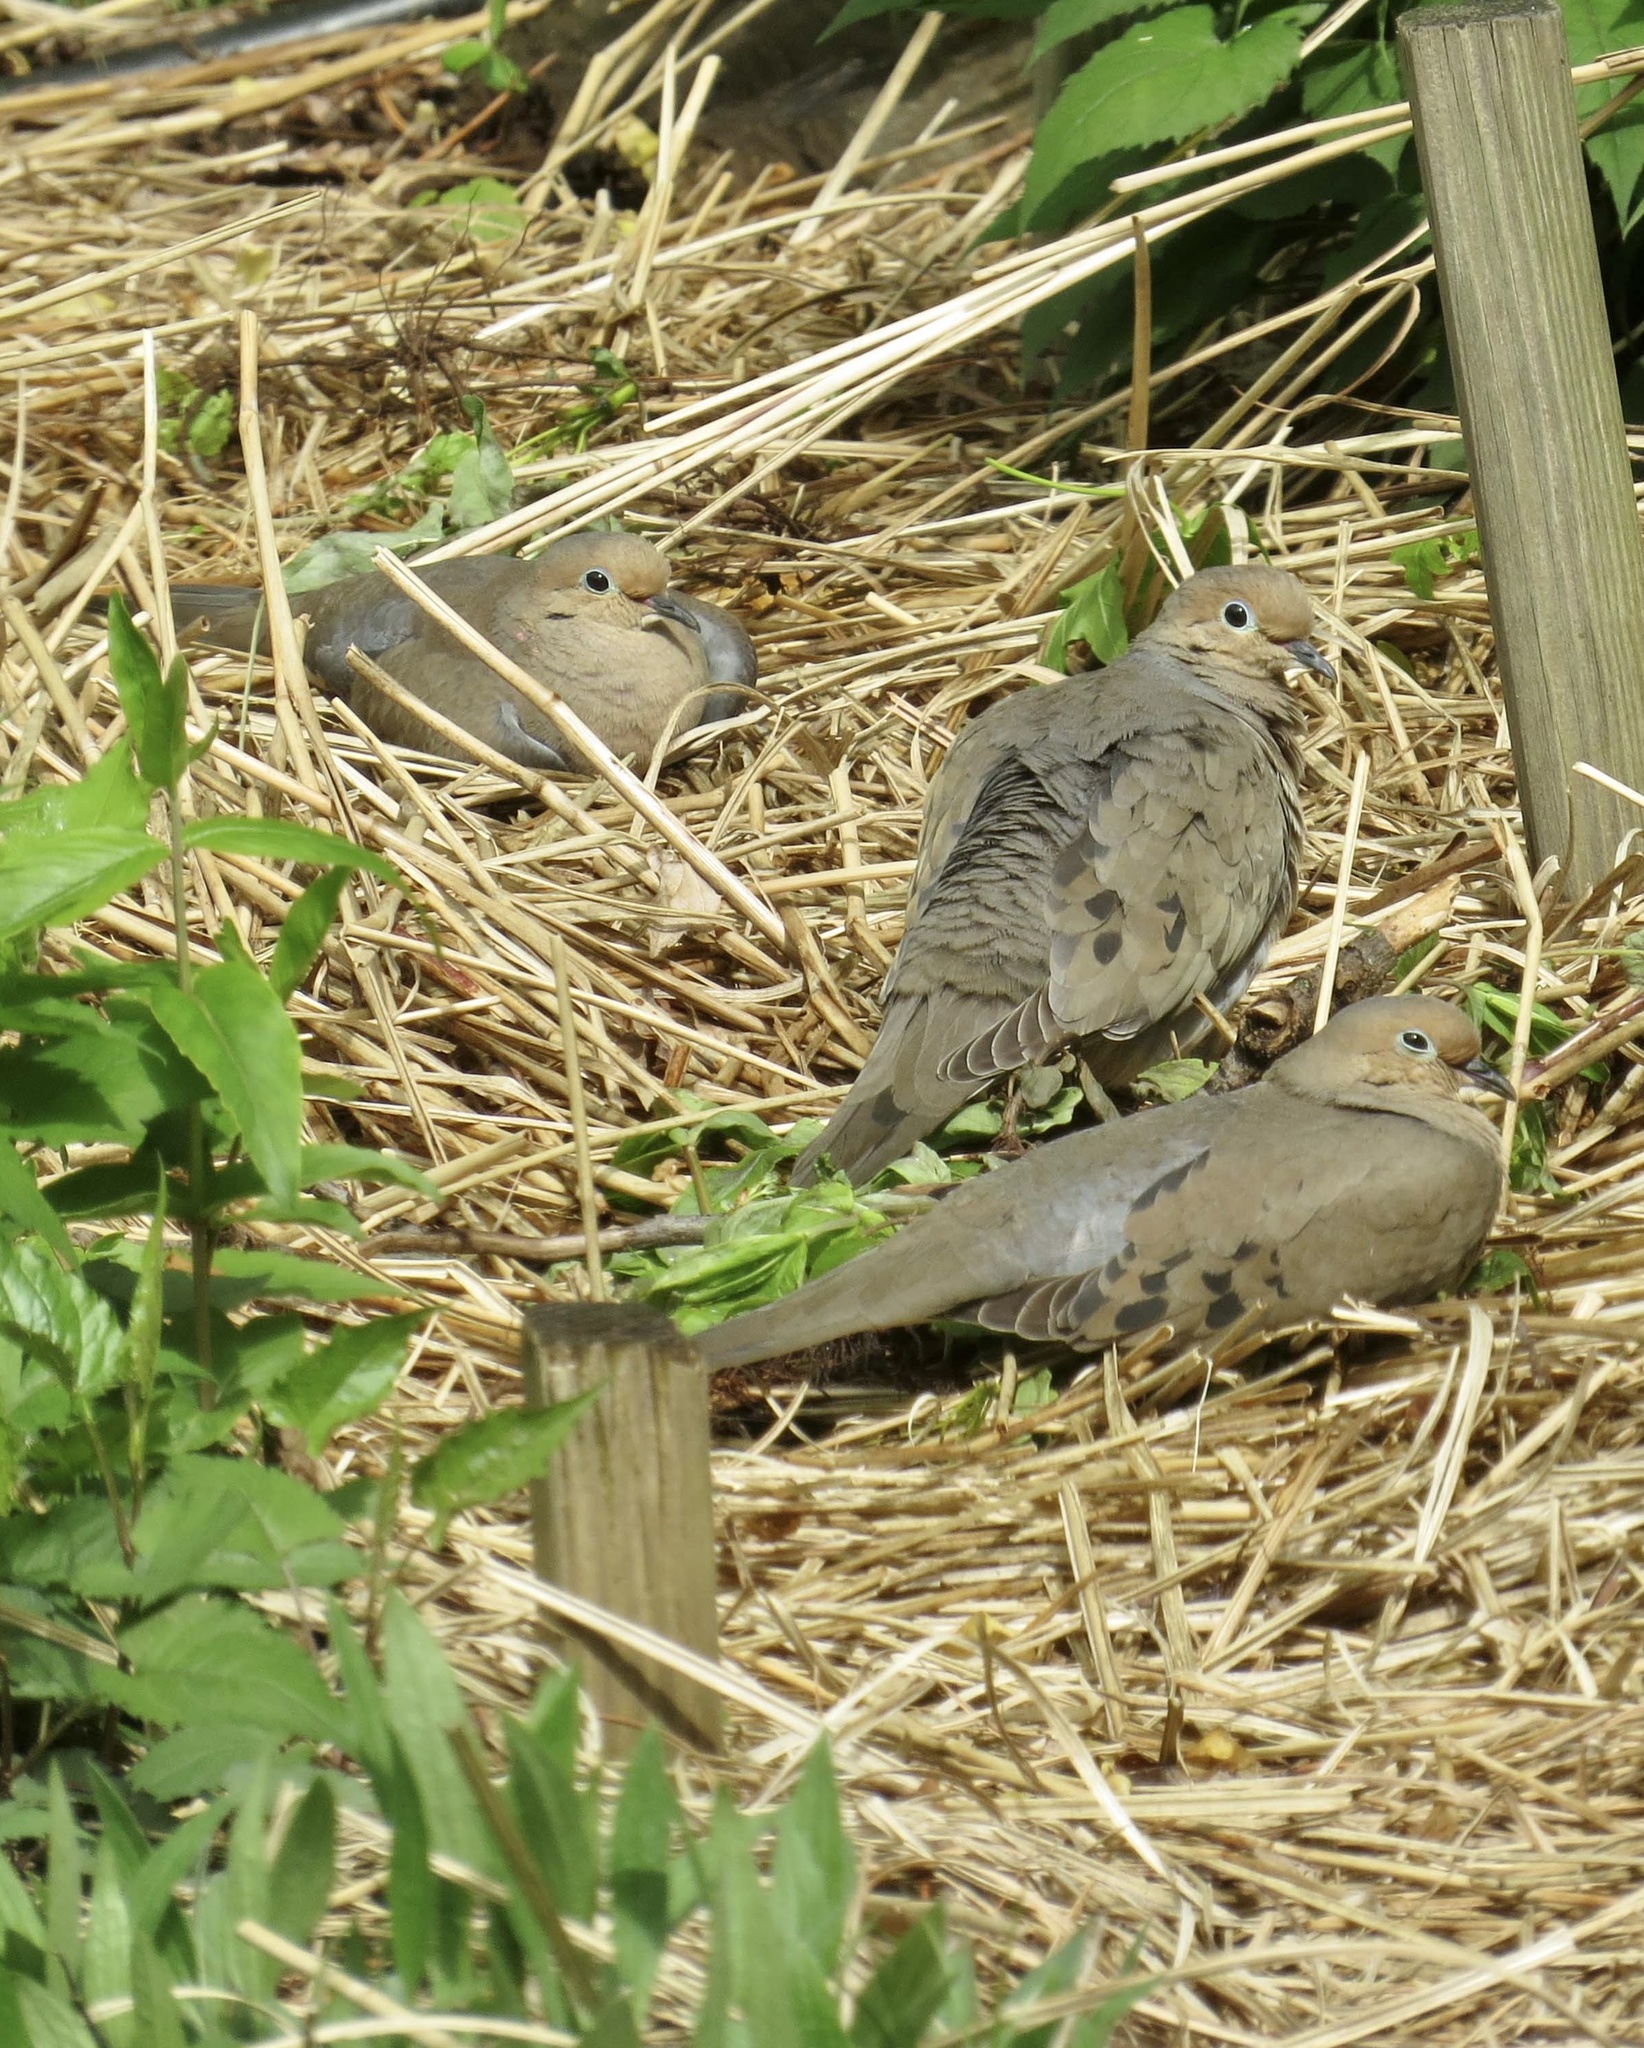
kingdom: Animalia
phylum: Chordata
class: Aves
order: Columbiformes
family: Columbidae
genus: Zenaida
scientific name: Zenaida macroura
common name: Mourning dove
